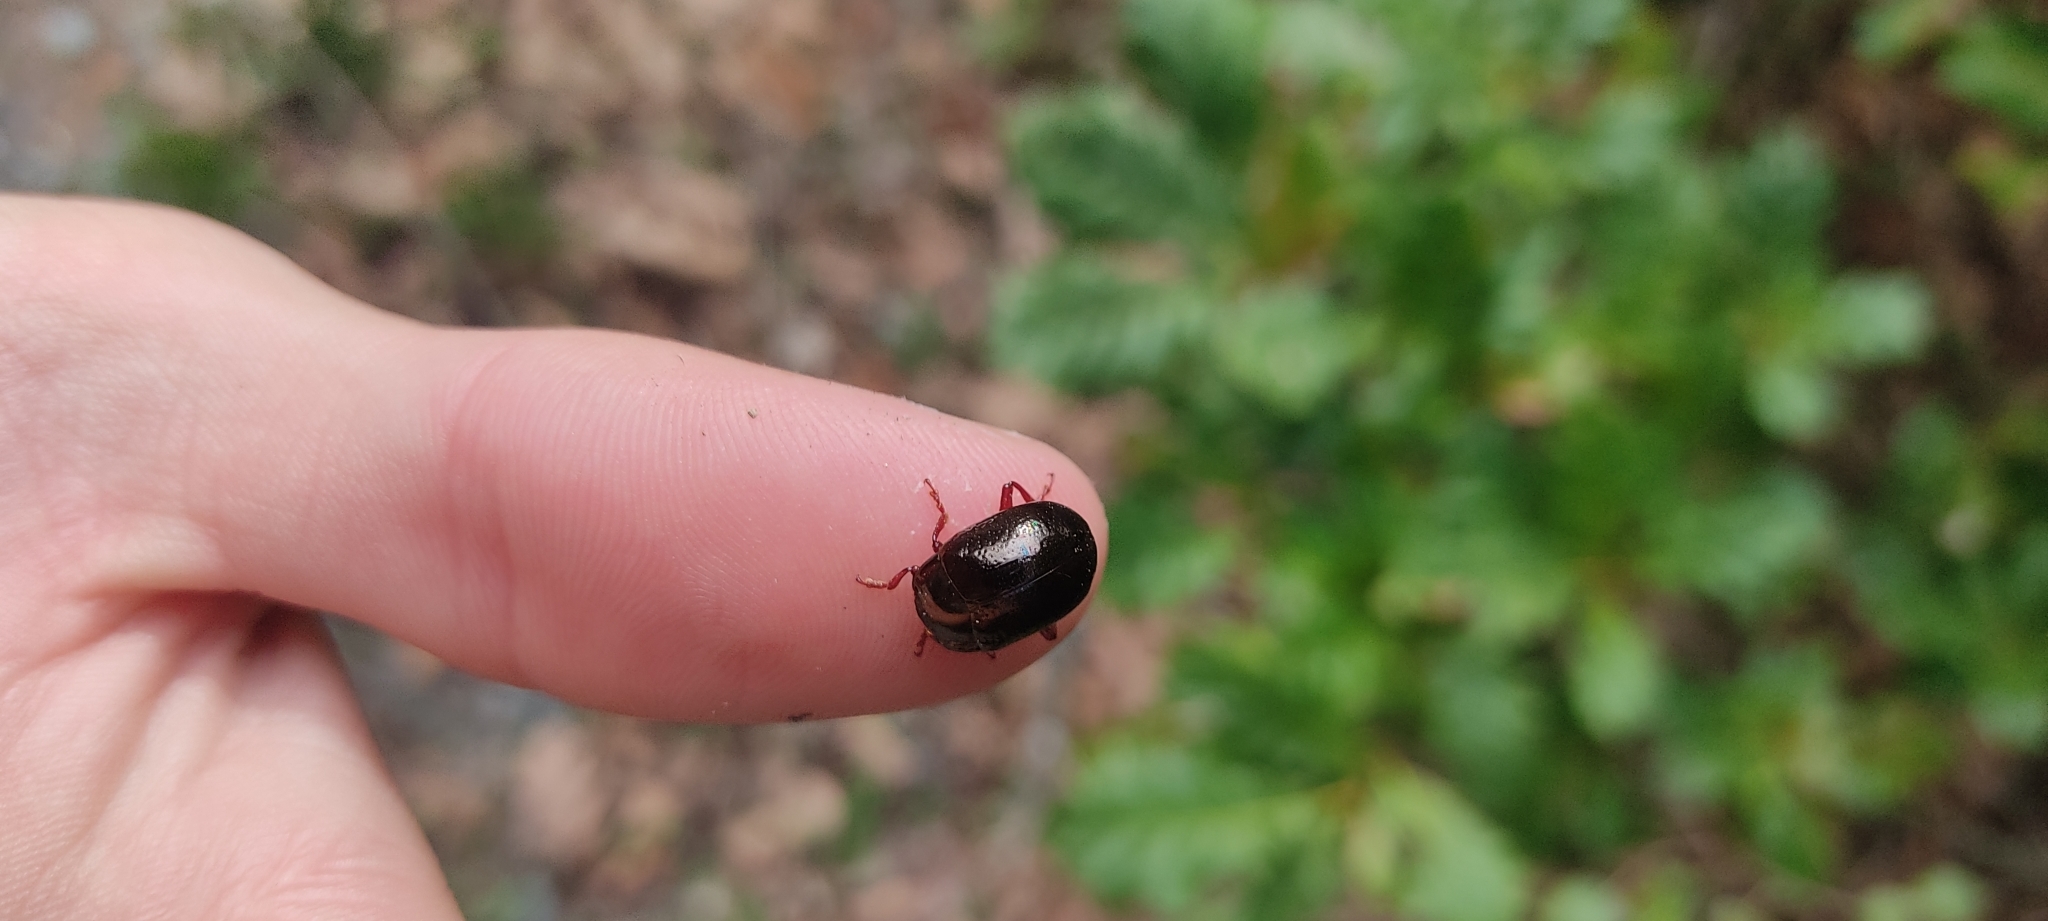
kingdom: Animalia
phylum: Arthropoda
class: Insecta
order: Coleoptera
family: Chrysomelidae
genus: Chrysolina
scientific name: Chrysolina bankii
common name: Leaf beetle
